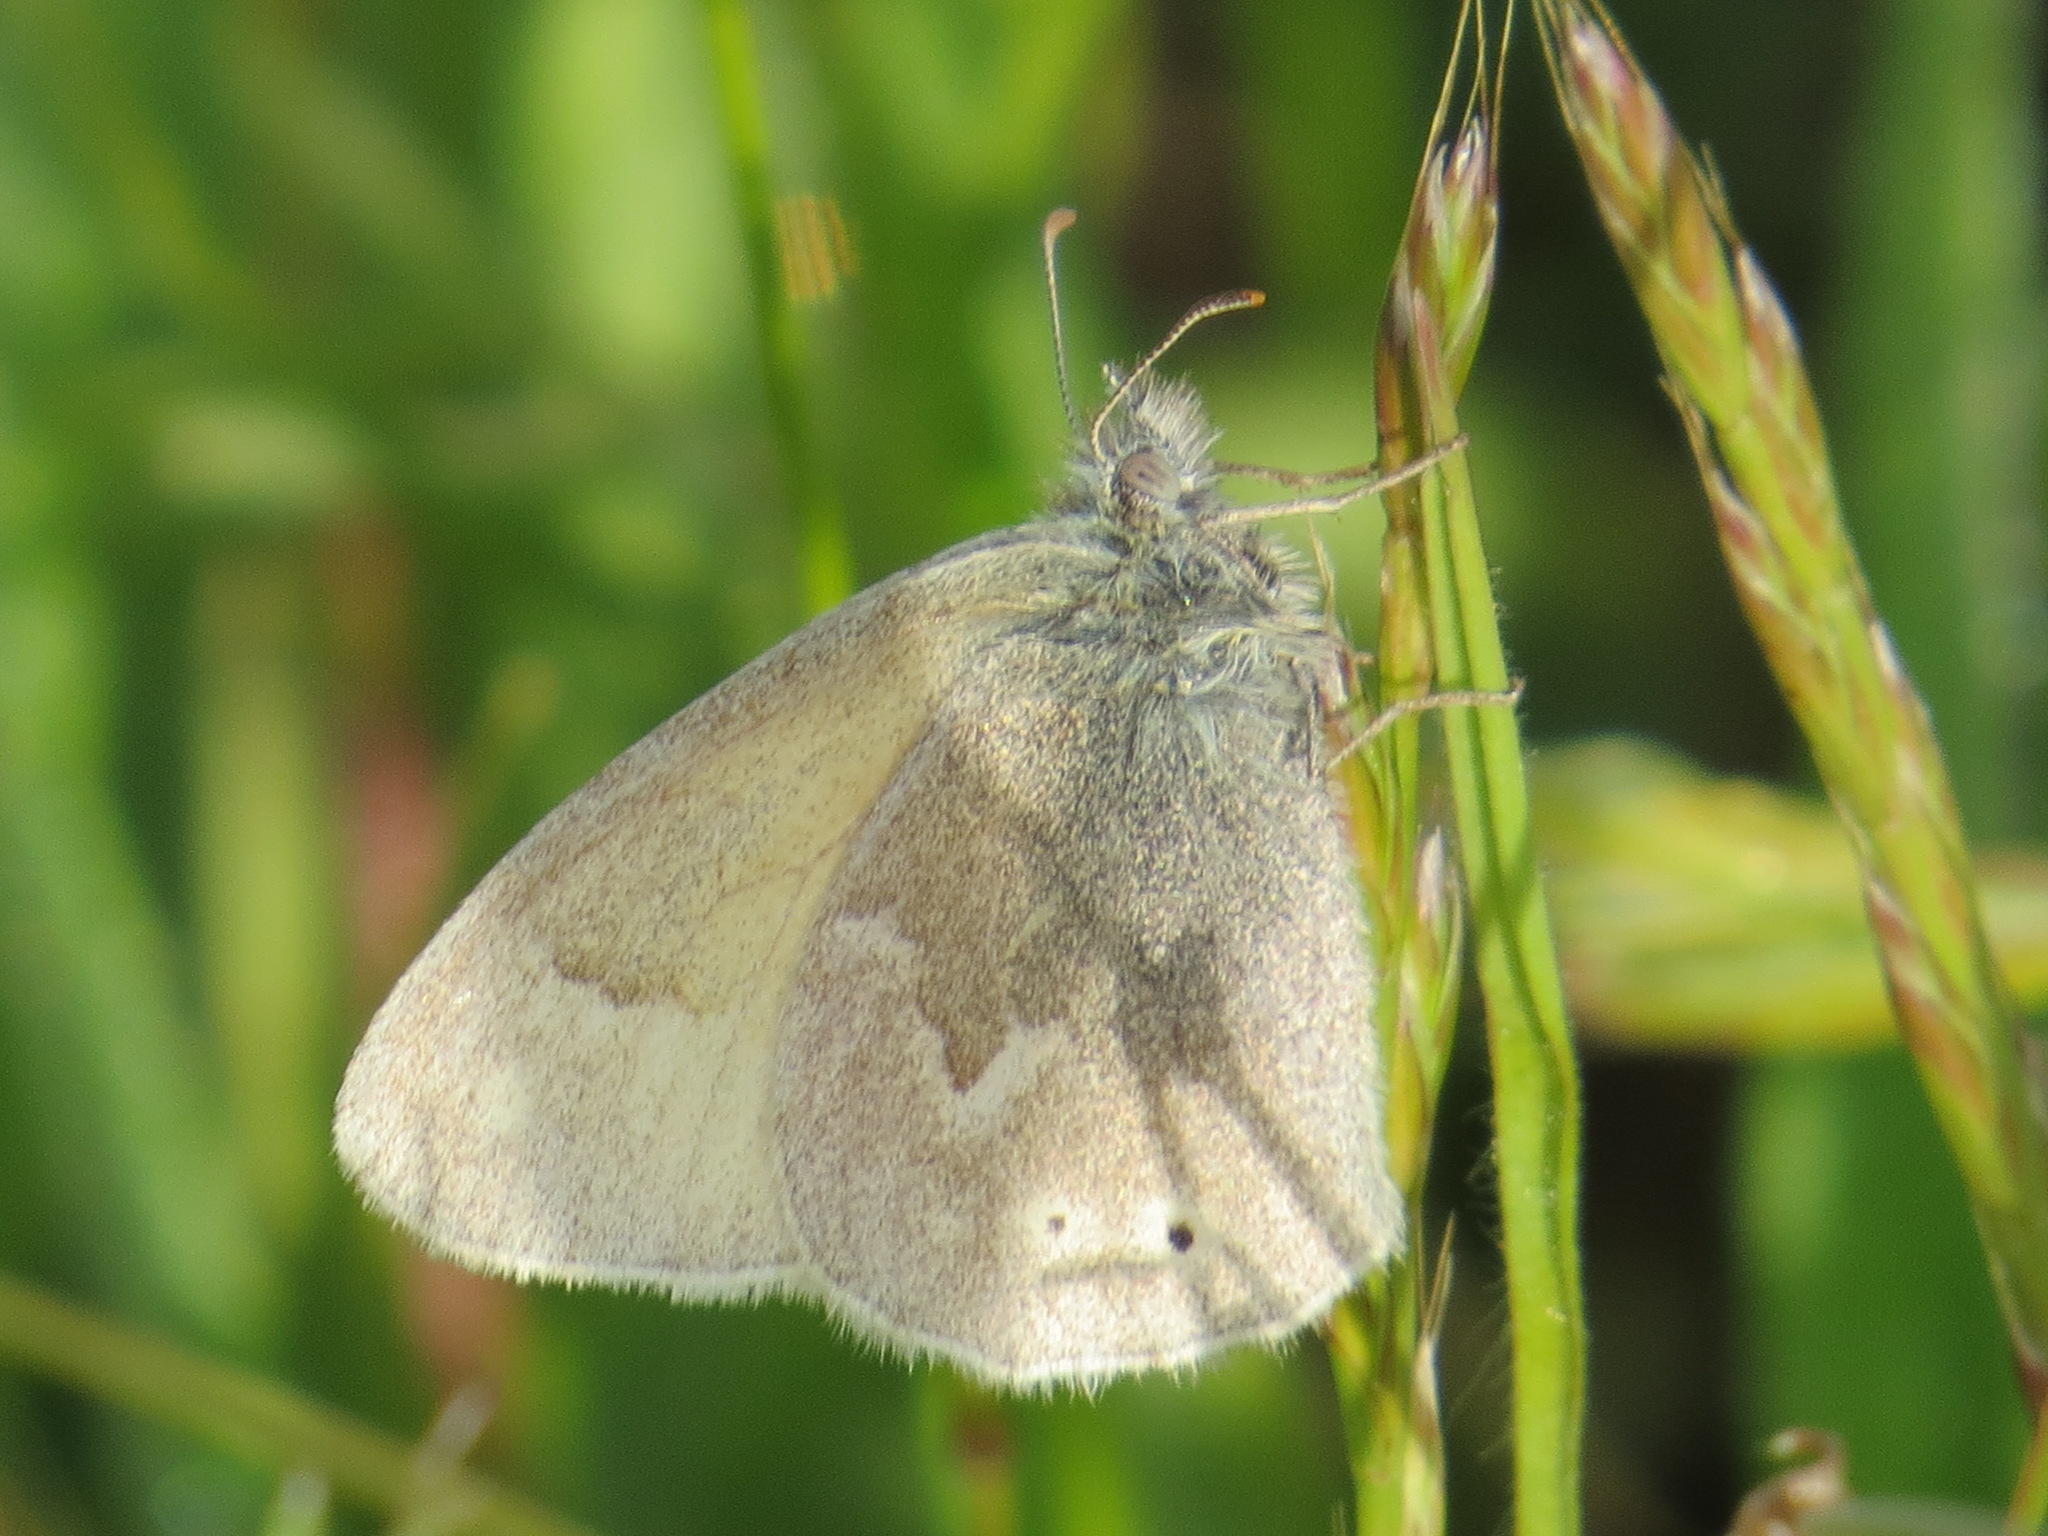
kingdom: Animalia
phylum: Arthropoda
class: Insecta
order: Lepidoptera
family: Nymphalidae
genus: Coenonympha
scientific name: Coenonympha california
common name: Common ringlet
